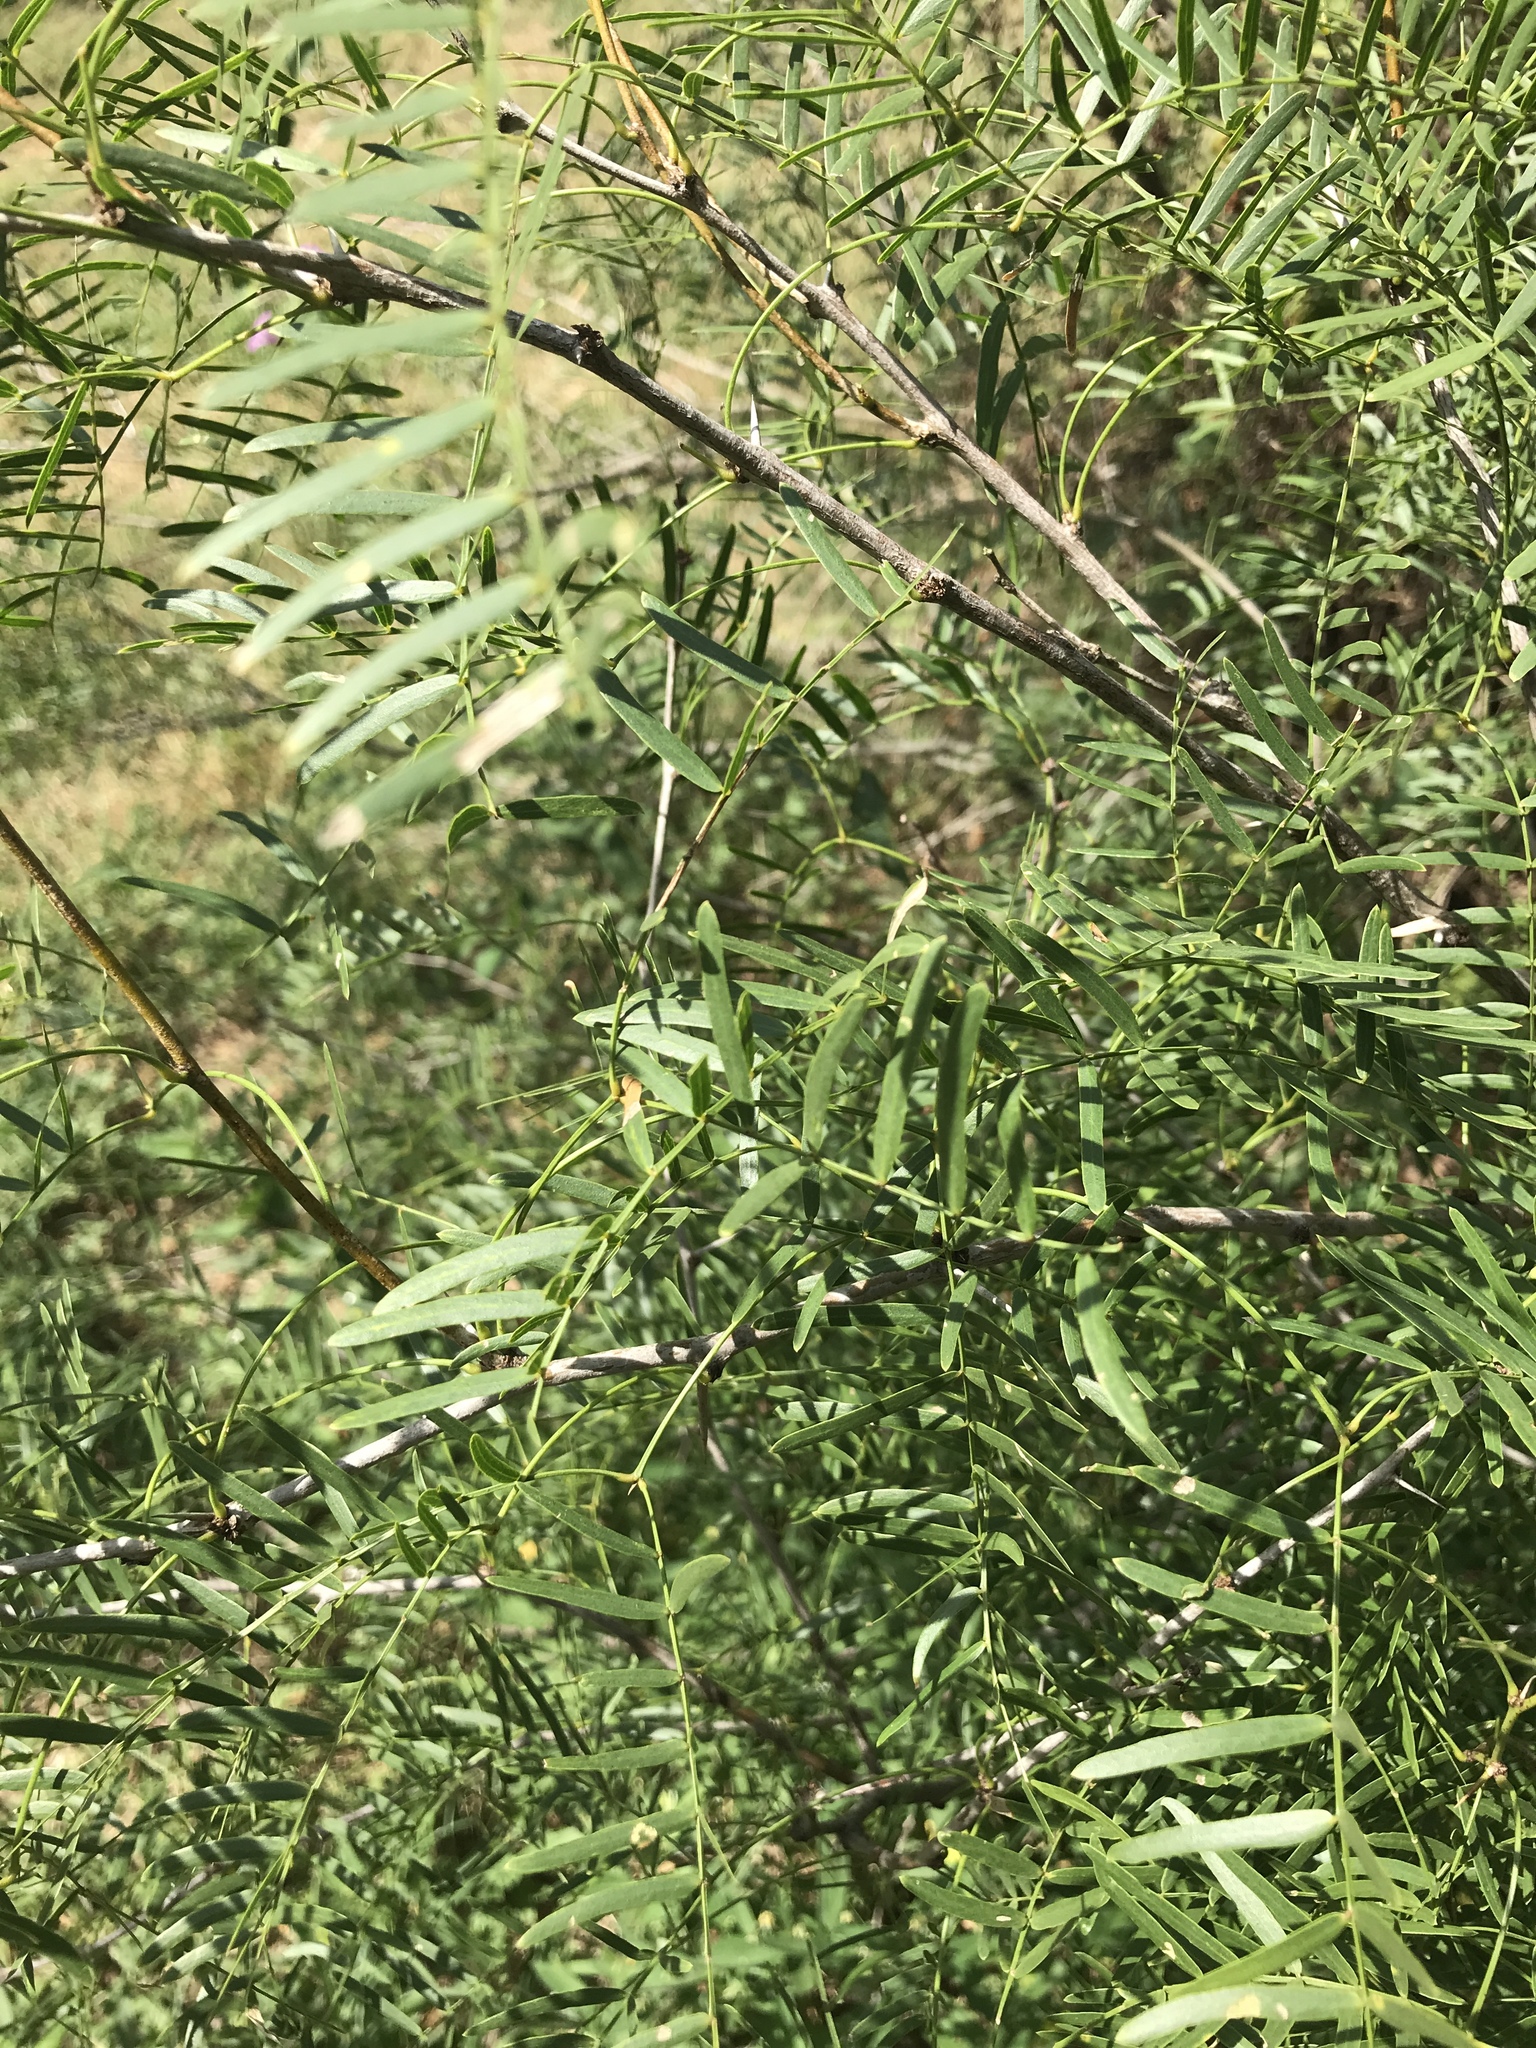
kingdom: Plantae
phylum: Tracheophyta
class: Magnoliopsida
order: Fabales
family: Fabaceae
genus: Prosopis
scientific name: Prosopis glandulosa
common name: Honey mesquite
